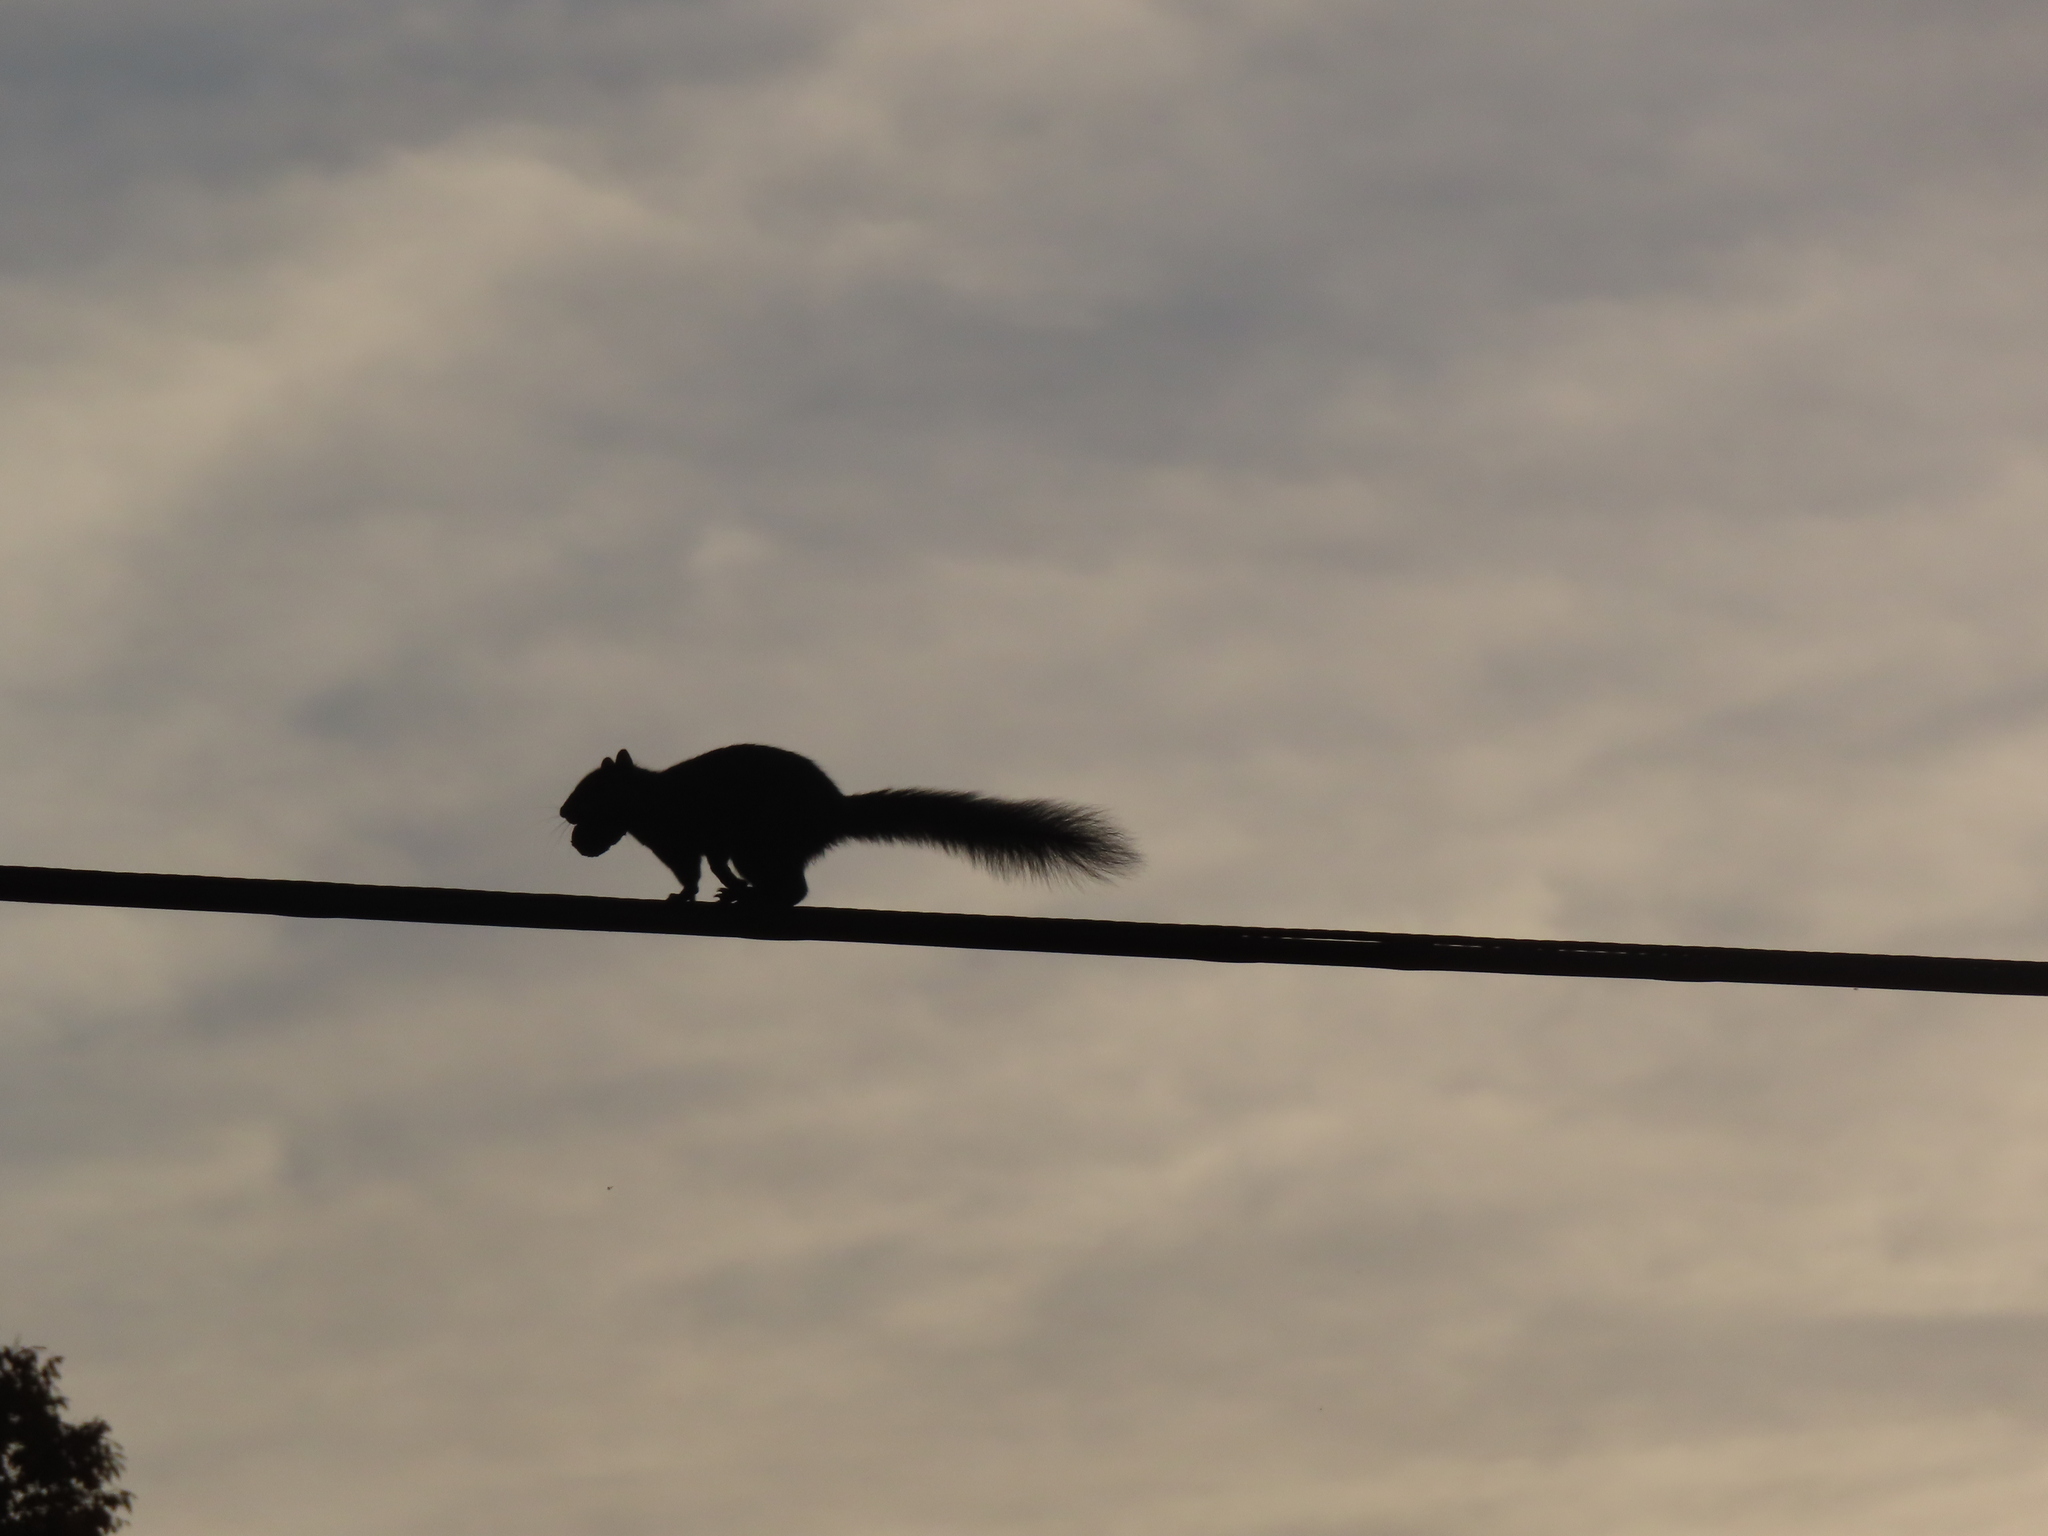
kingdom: Animalia
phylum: Chordata
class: Mammalia
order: Rodentia
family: Sciuridae
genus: Sciurus
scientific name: Sciurus carolinensis
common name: Eastern gray squirrel
